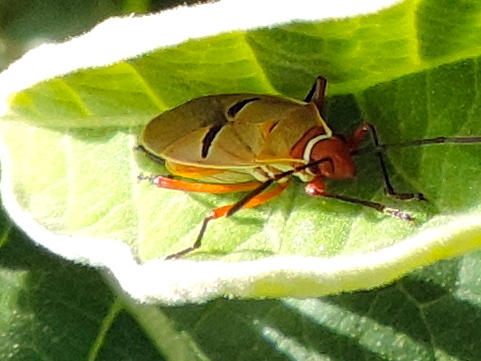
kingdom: Animalia
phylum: Arthropoda
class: Insecta
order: Hemiptera
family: Pyrrhocoridae
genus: Dysdercus
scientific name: Dysdercus
